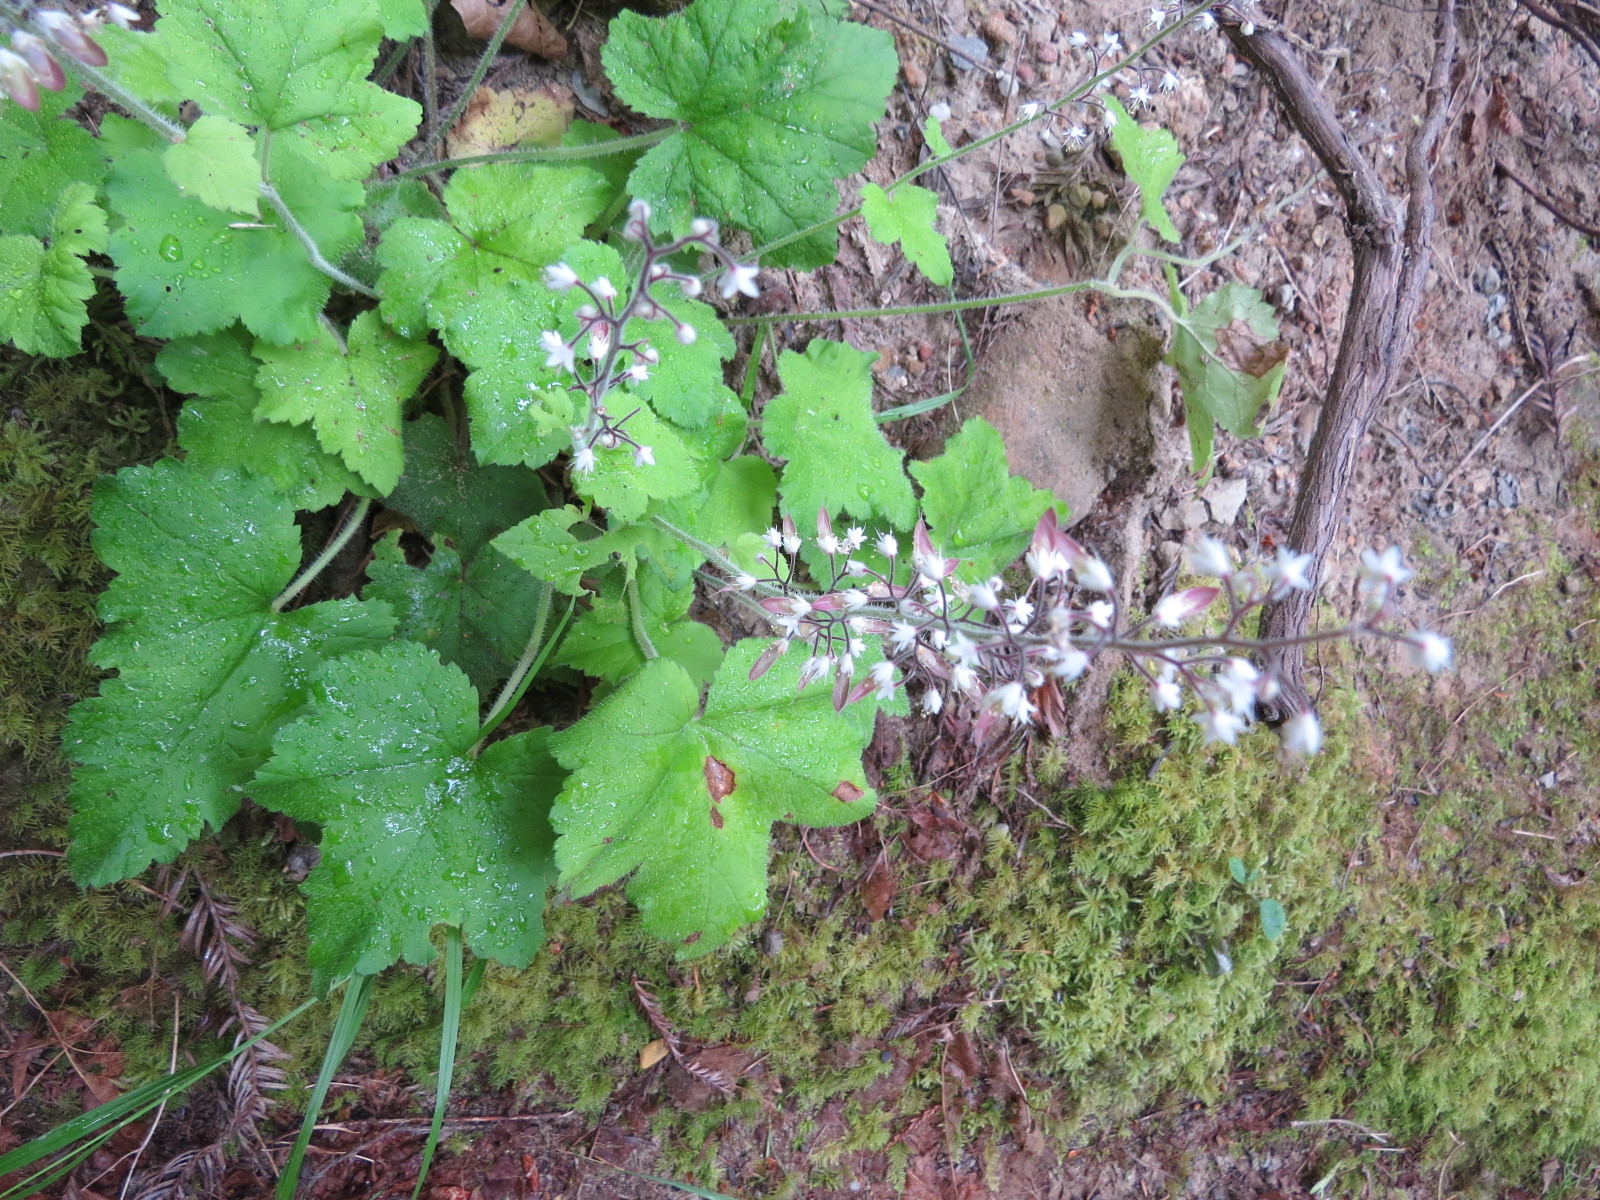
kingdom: Plantae
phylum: Tracheophyta
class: Magnoliopsida
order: Saxifragales
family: Saxifragaceae
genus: Tiarella
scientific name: Tiarella trifoliata
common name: Sugar-scoop
